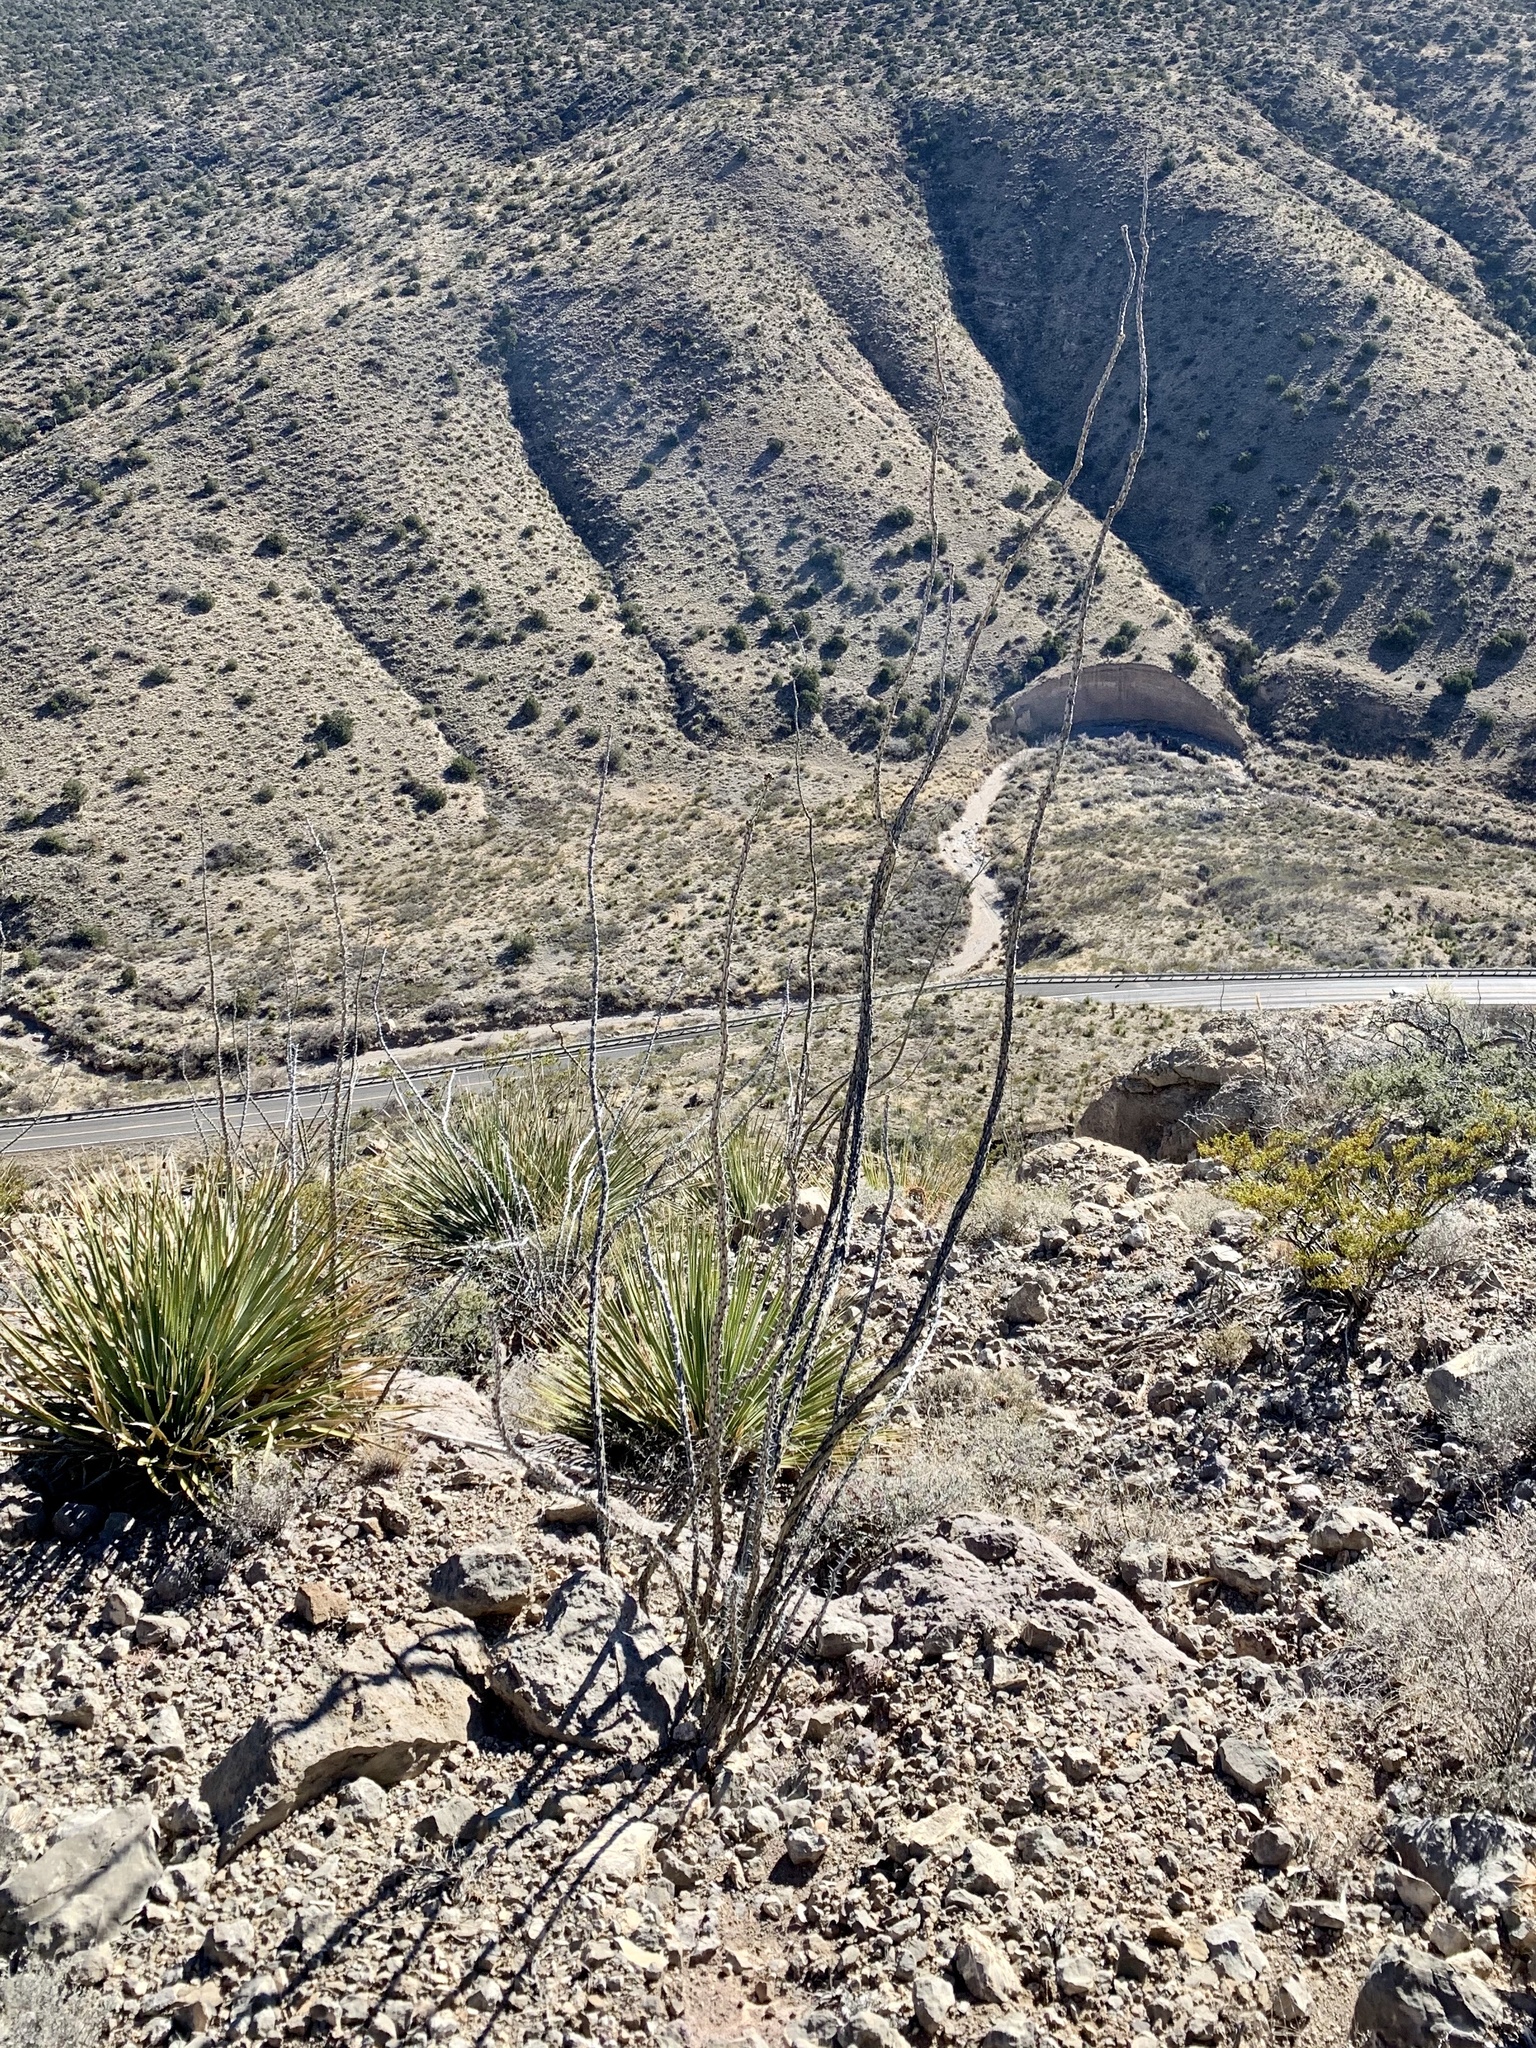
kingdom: Plantae
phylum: Tracheophyta
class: Magnoliopsida
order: Ericales
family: Fouquieriaceae
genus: Fouquieria
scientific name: Fouquieria splendens
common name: Vine-cactus
